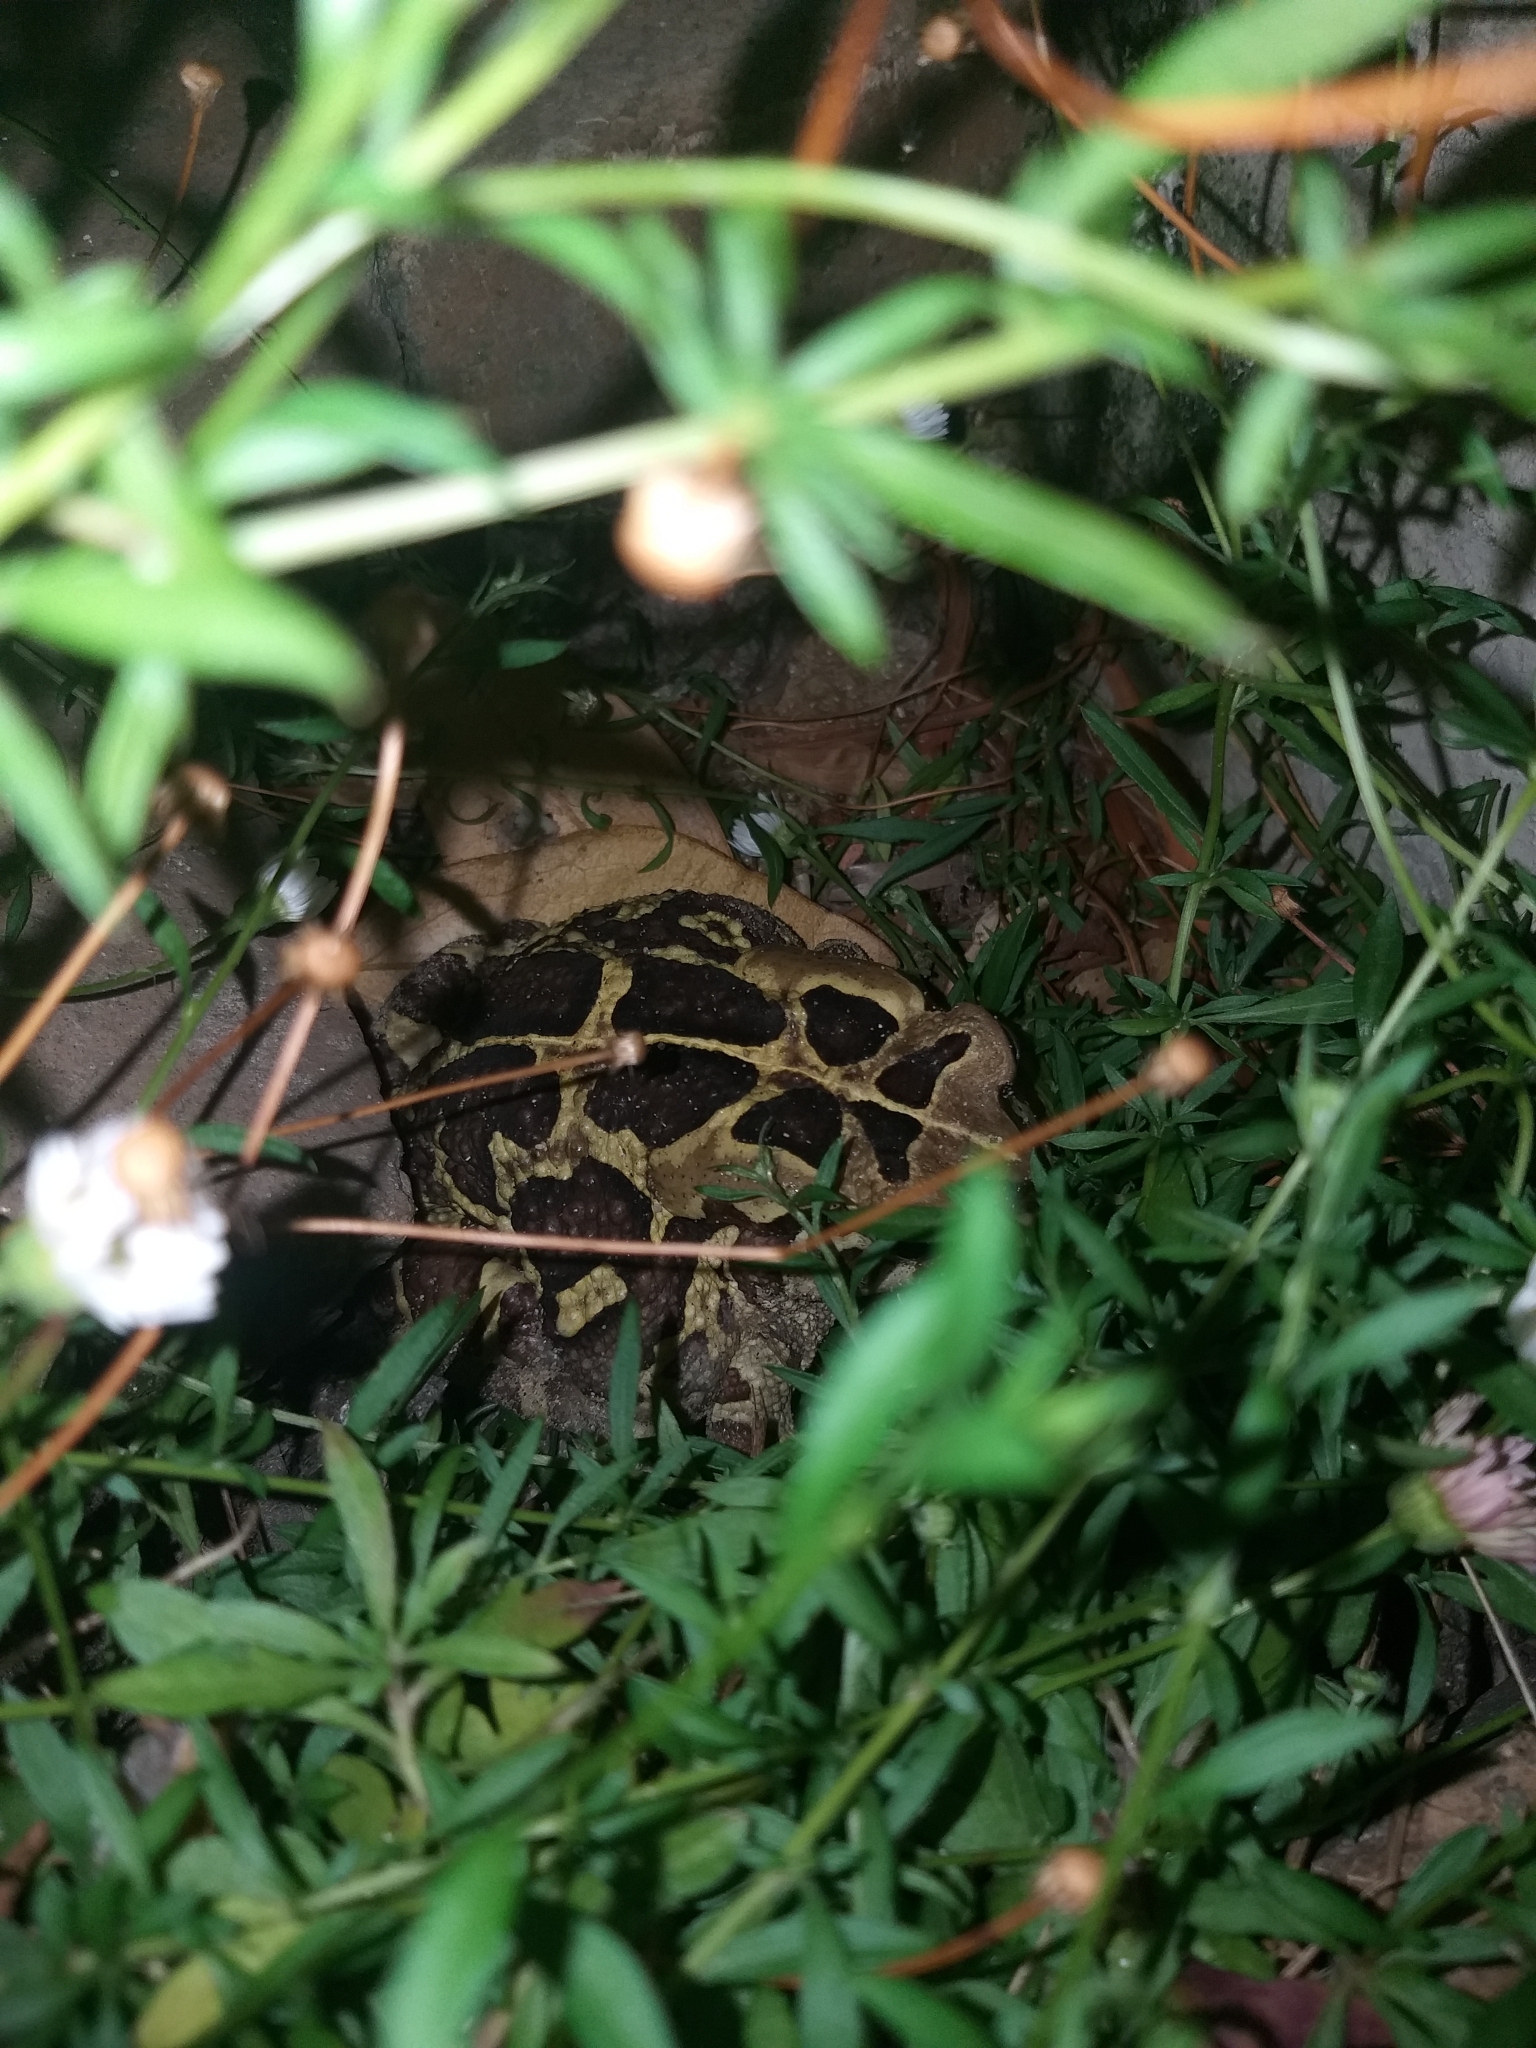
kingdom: Animalia
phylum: Chordata
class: Amphibia
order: Anura
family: Bufonidae
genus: Sclerophrys
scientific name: Sclerophrys pantherina
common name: Panther toad
